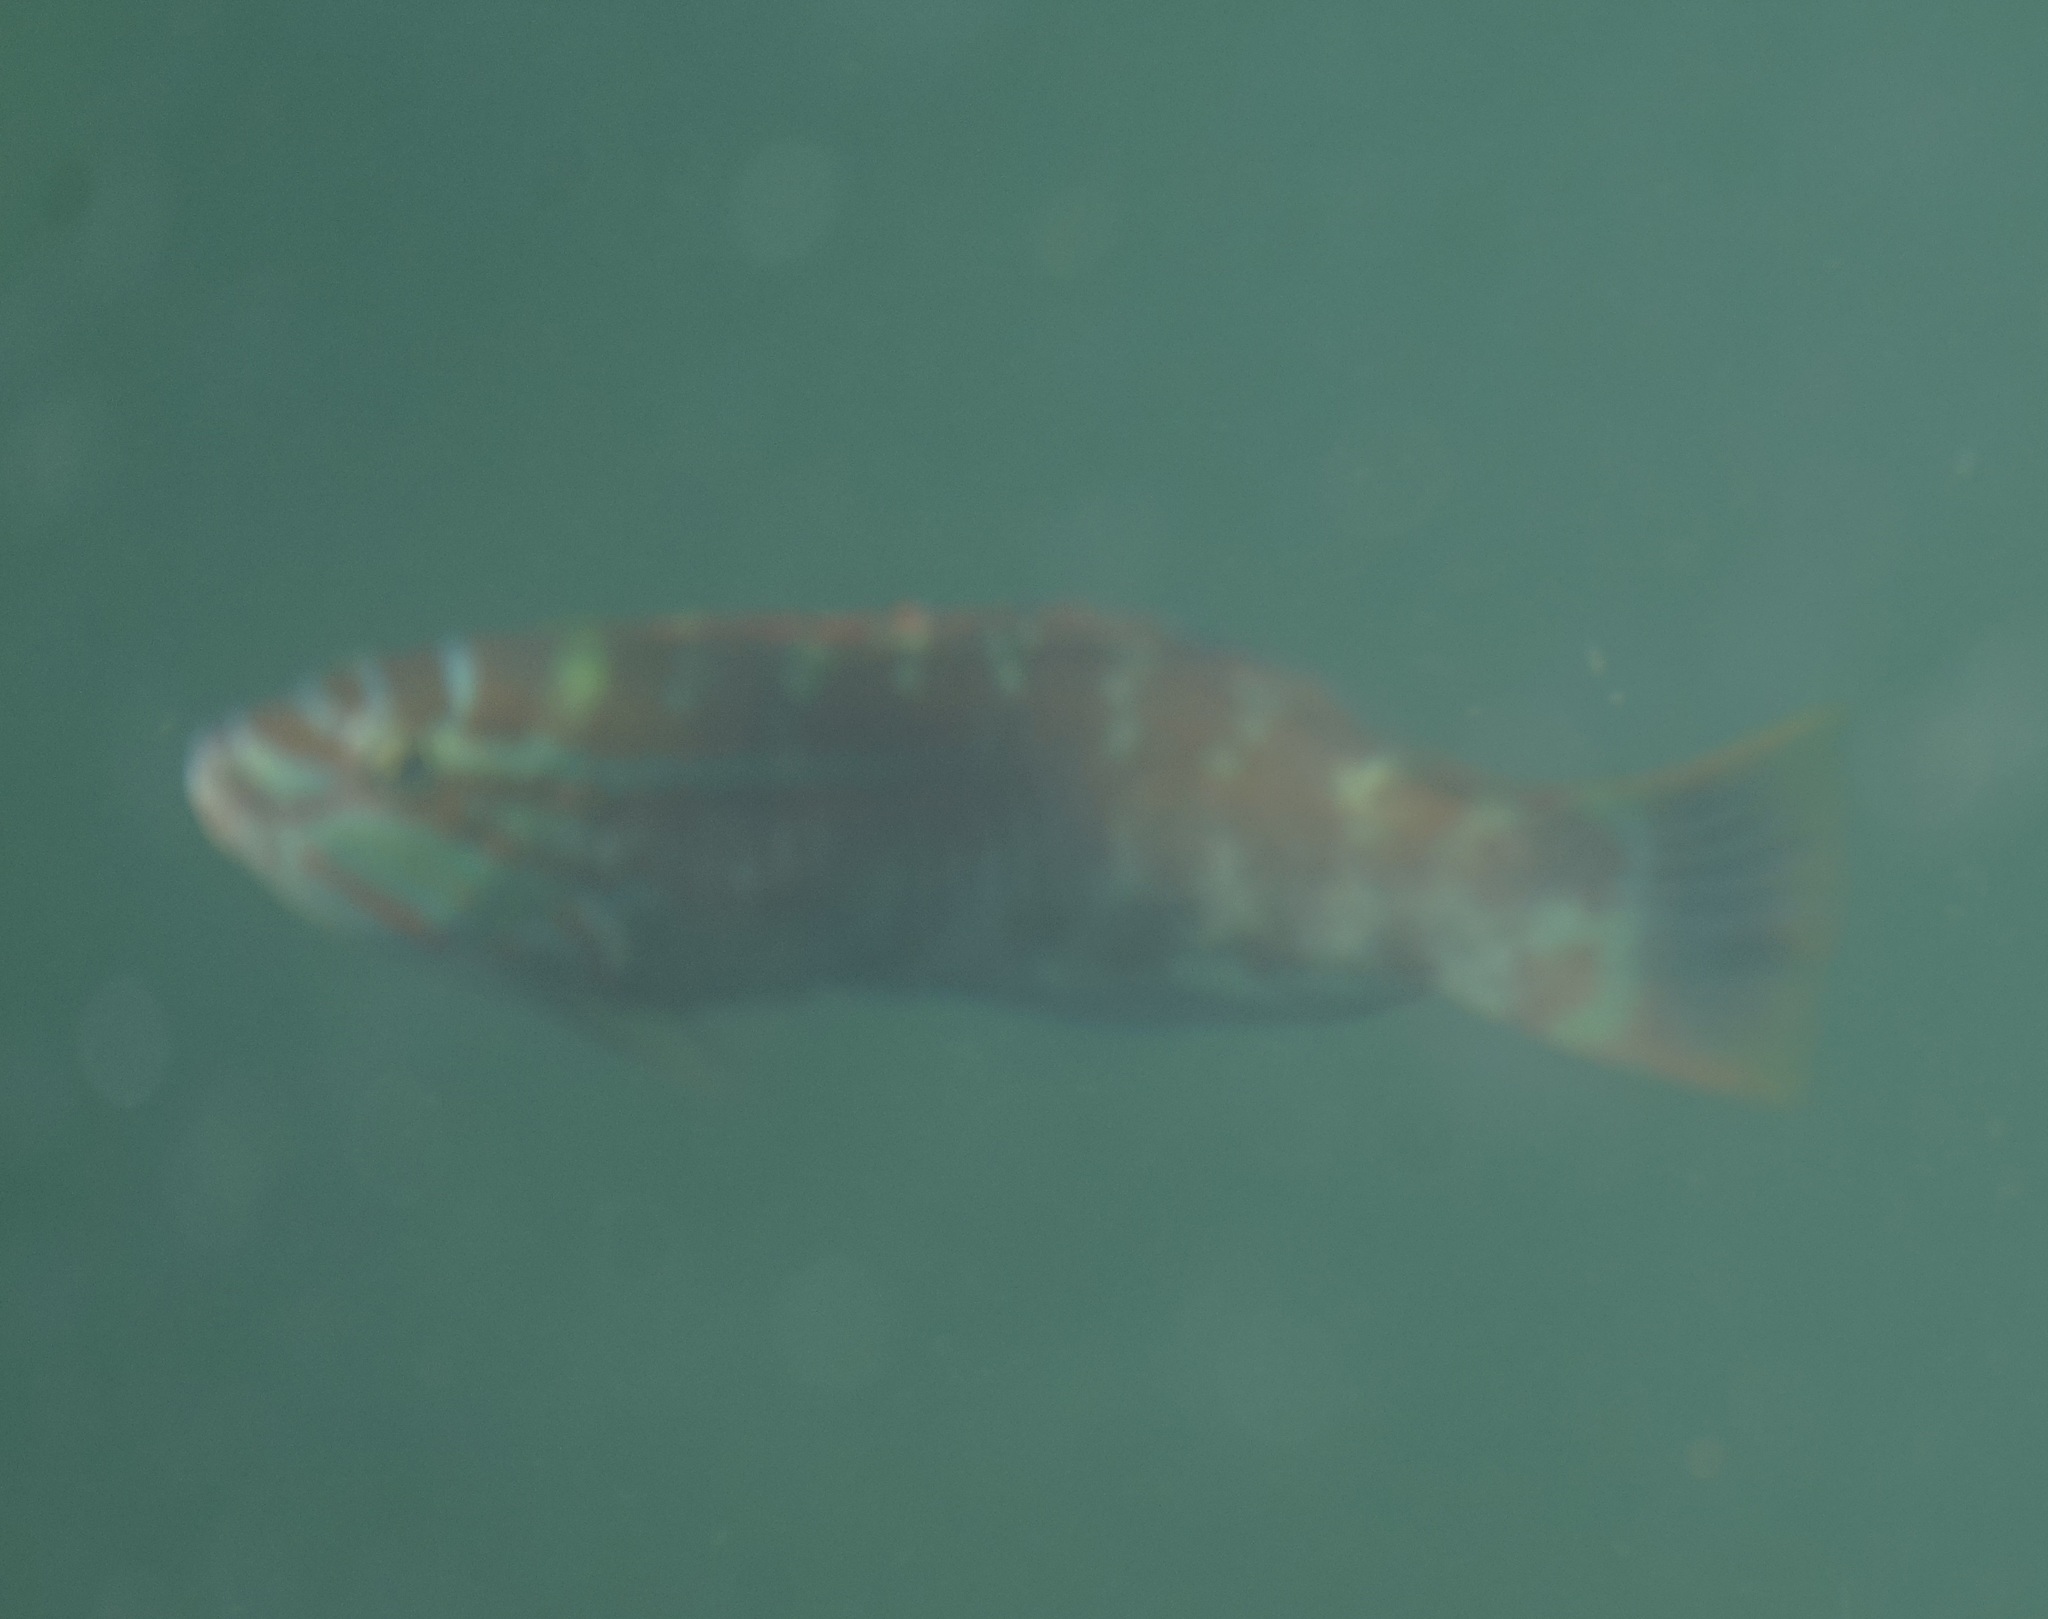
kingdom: Animalia
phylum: Chordata
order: Perciformes
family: Labridae
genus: Pseudolabrus
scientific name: Pseudolabrus guentheri
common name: Günther's wrasse
